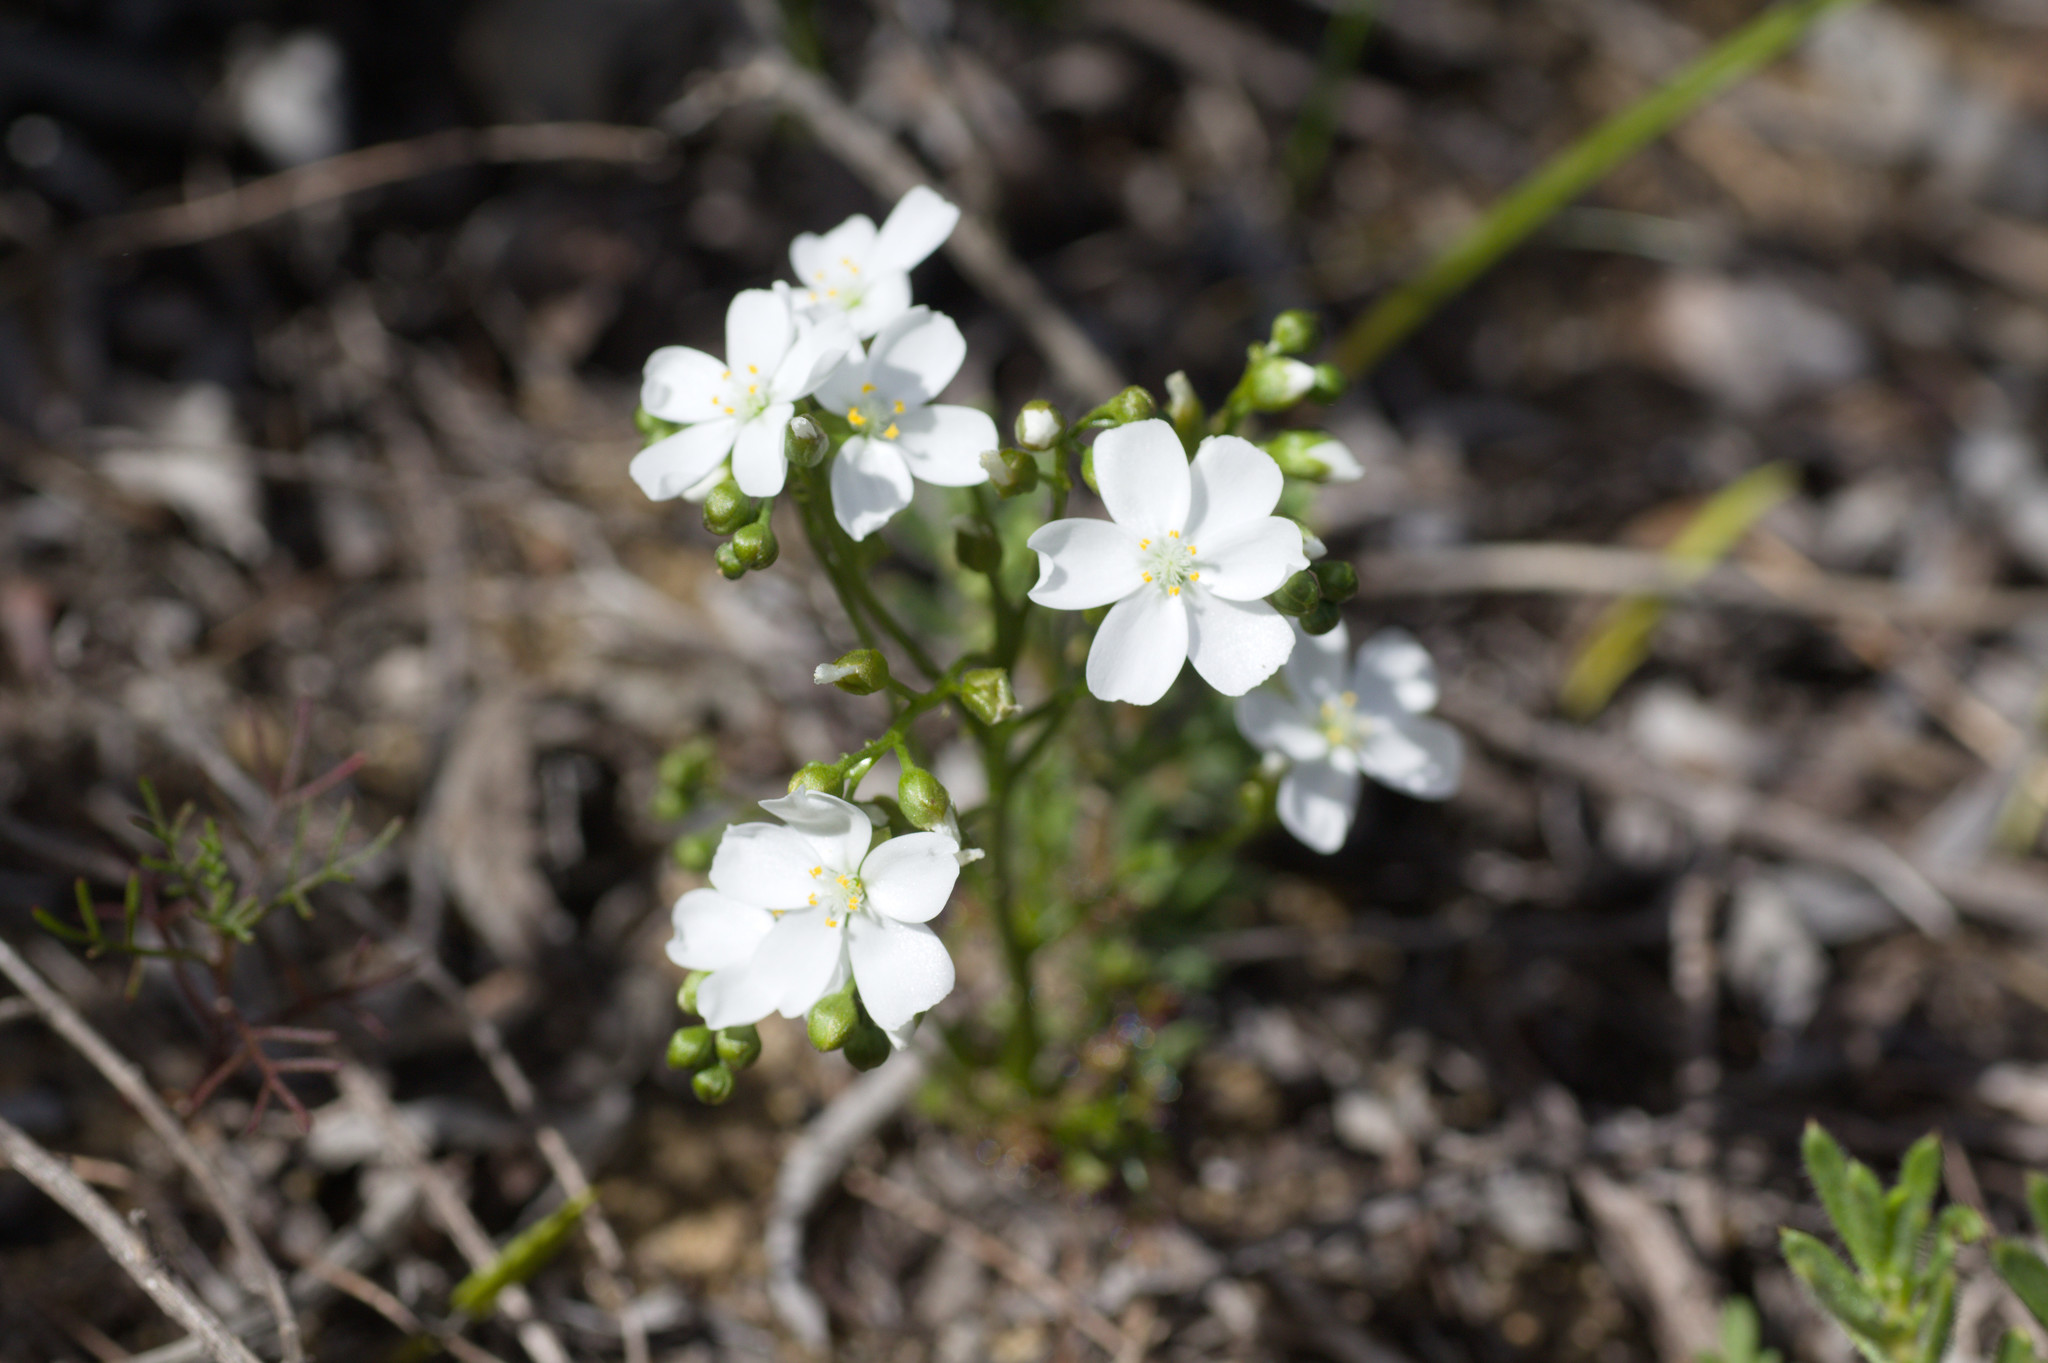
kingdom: Plantae
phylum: Tracheophyta
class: Magnoliopsida
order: Caryophyllales
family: Droseraceae
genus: Drosera
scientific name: Drosera stolonifera
